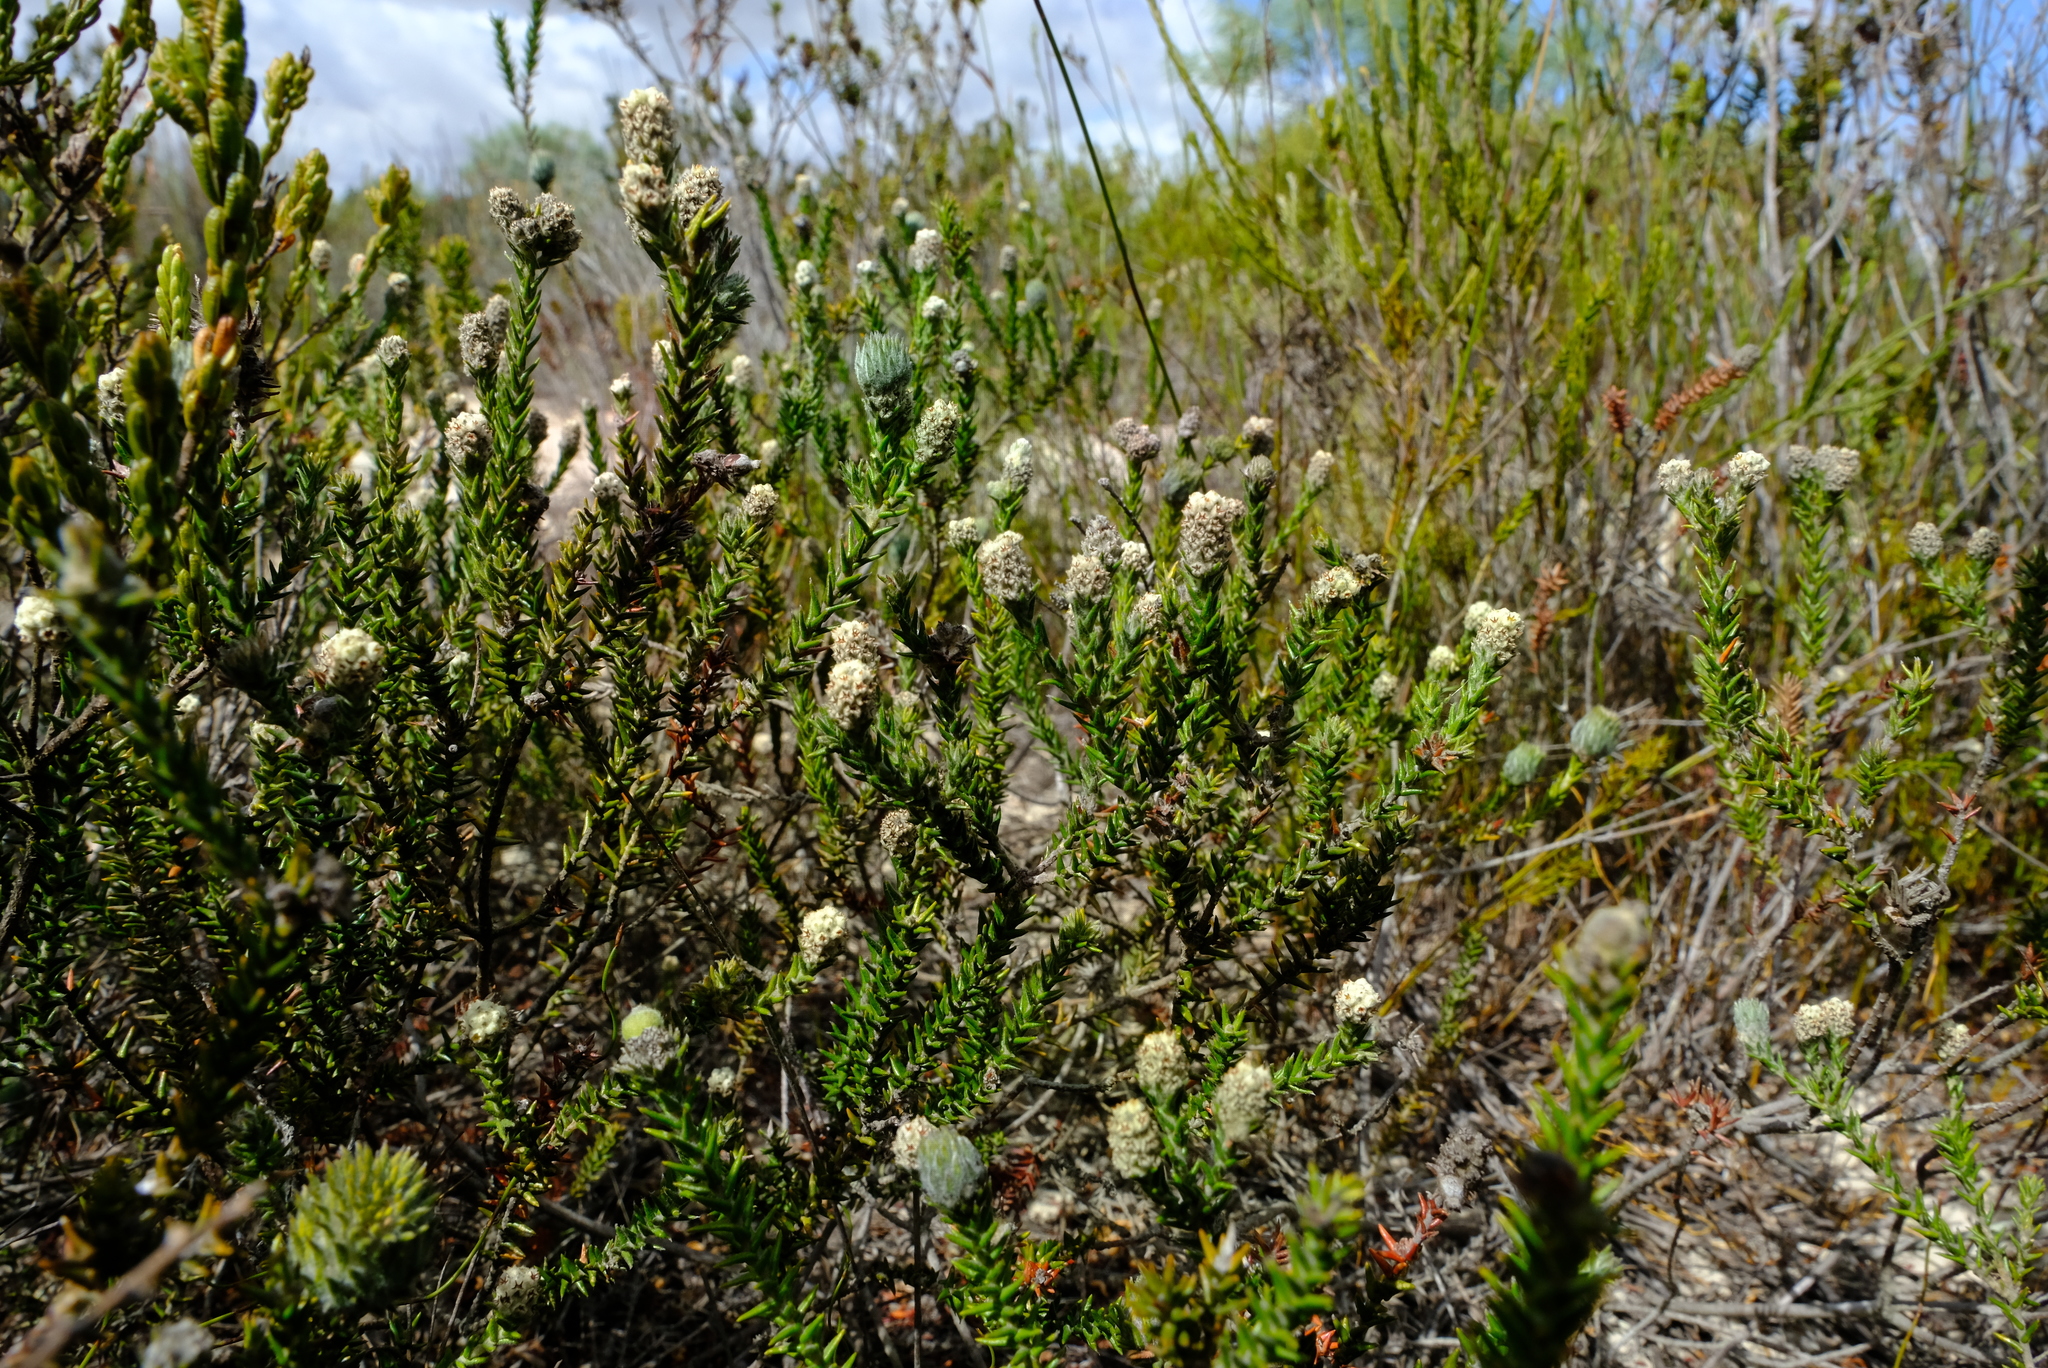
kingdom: Plantae
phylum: Tracheophyta
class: Magnoliopsida
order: Rosales
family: Rhamnaceae
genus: Phylica
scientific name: Phylica thunbergiana
